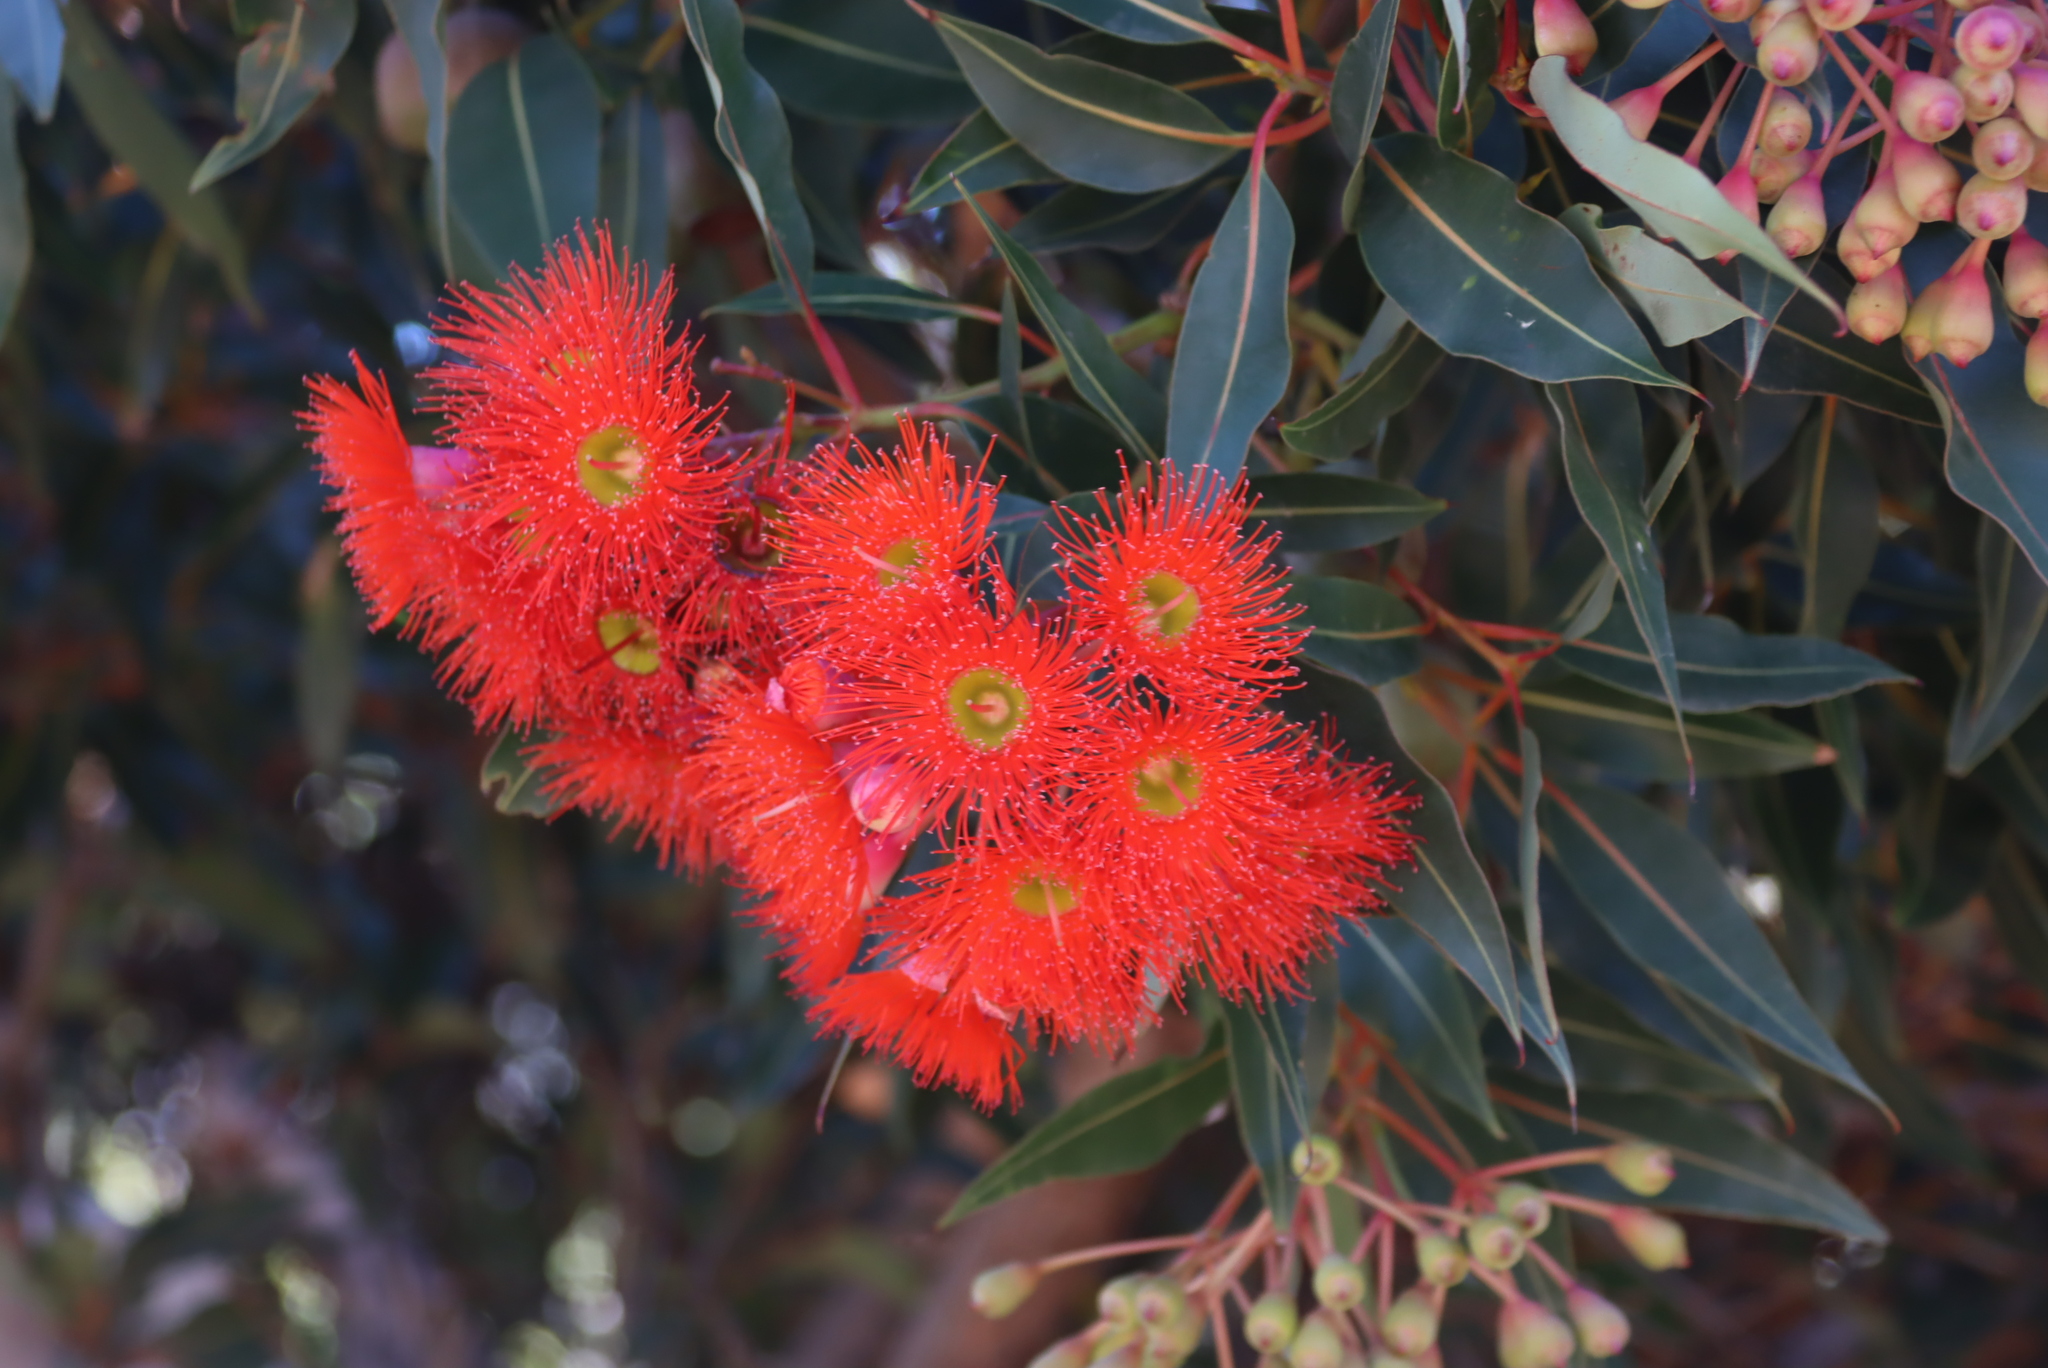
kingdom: Plantae
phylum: Tracheophyta
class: Magnoliopsida
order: Myrtales
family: Myrtaceae
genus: Corymbia
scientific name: Corymbia ficifolia
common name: Redflower gum
